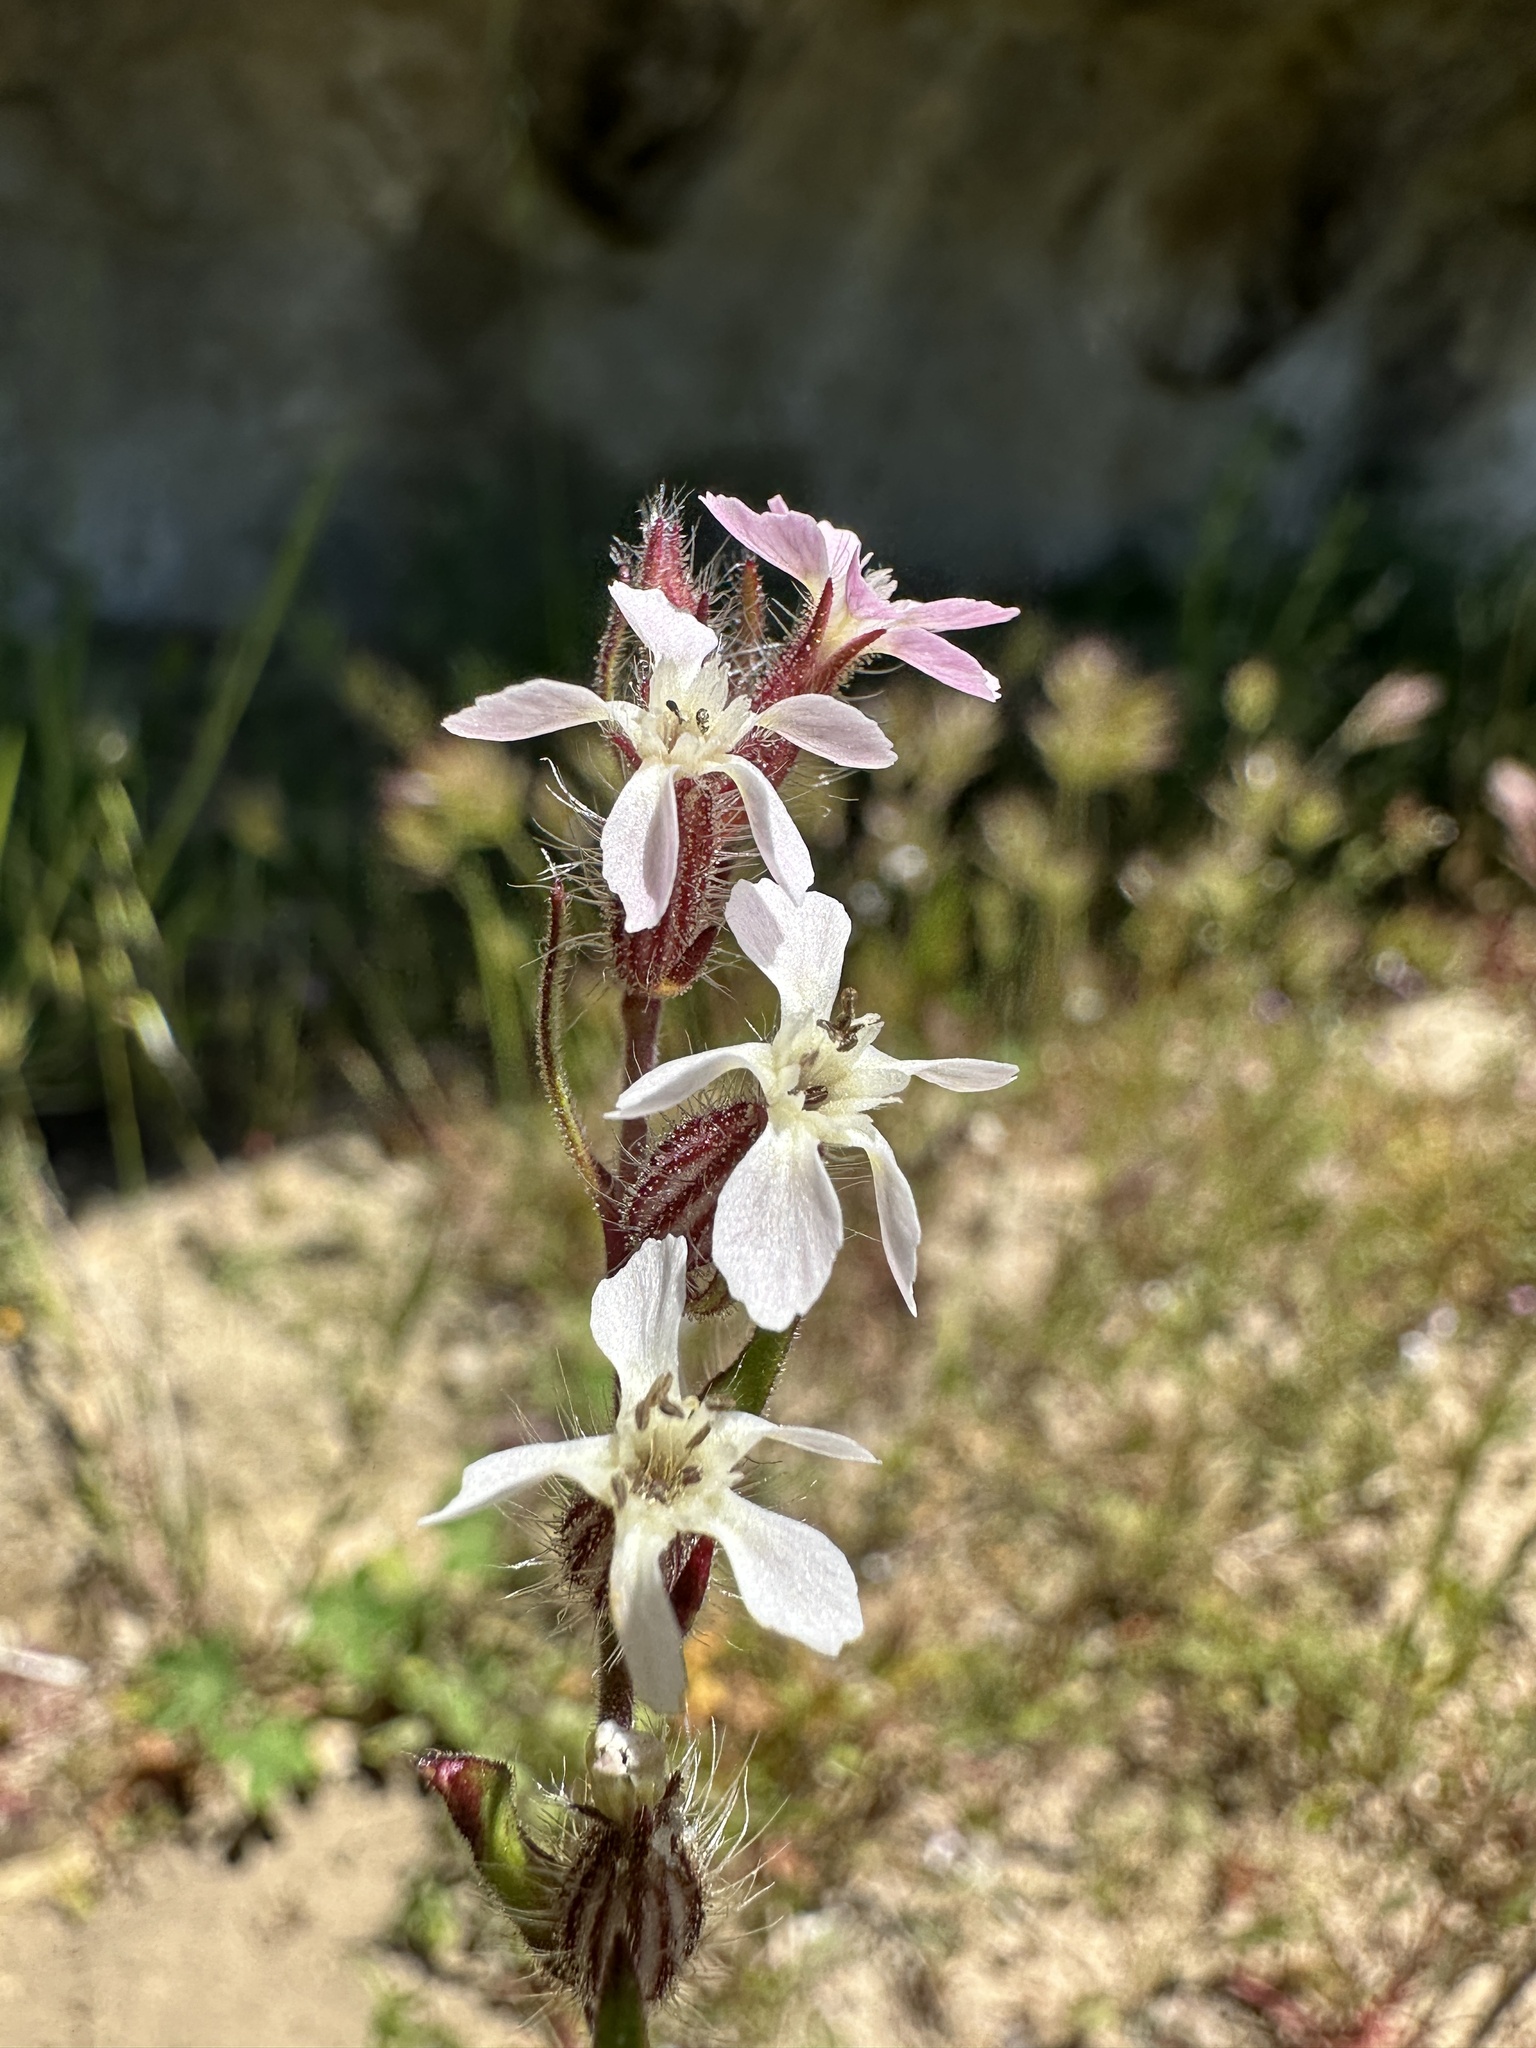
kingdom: Plantae
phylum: Tracheophyta
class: Magnoliopsida
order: Caryophyllales
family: Caryophyllaceae
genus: Silene
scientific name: Silene gallica
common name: Small-flowered catchfly
